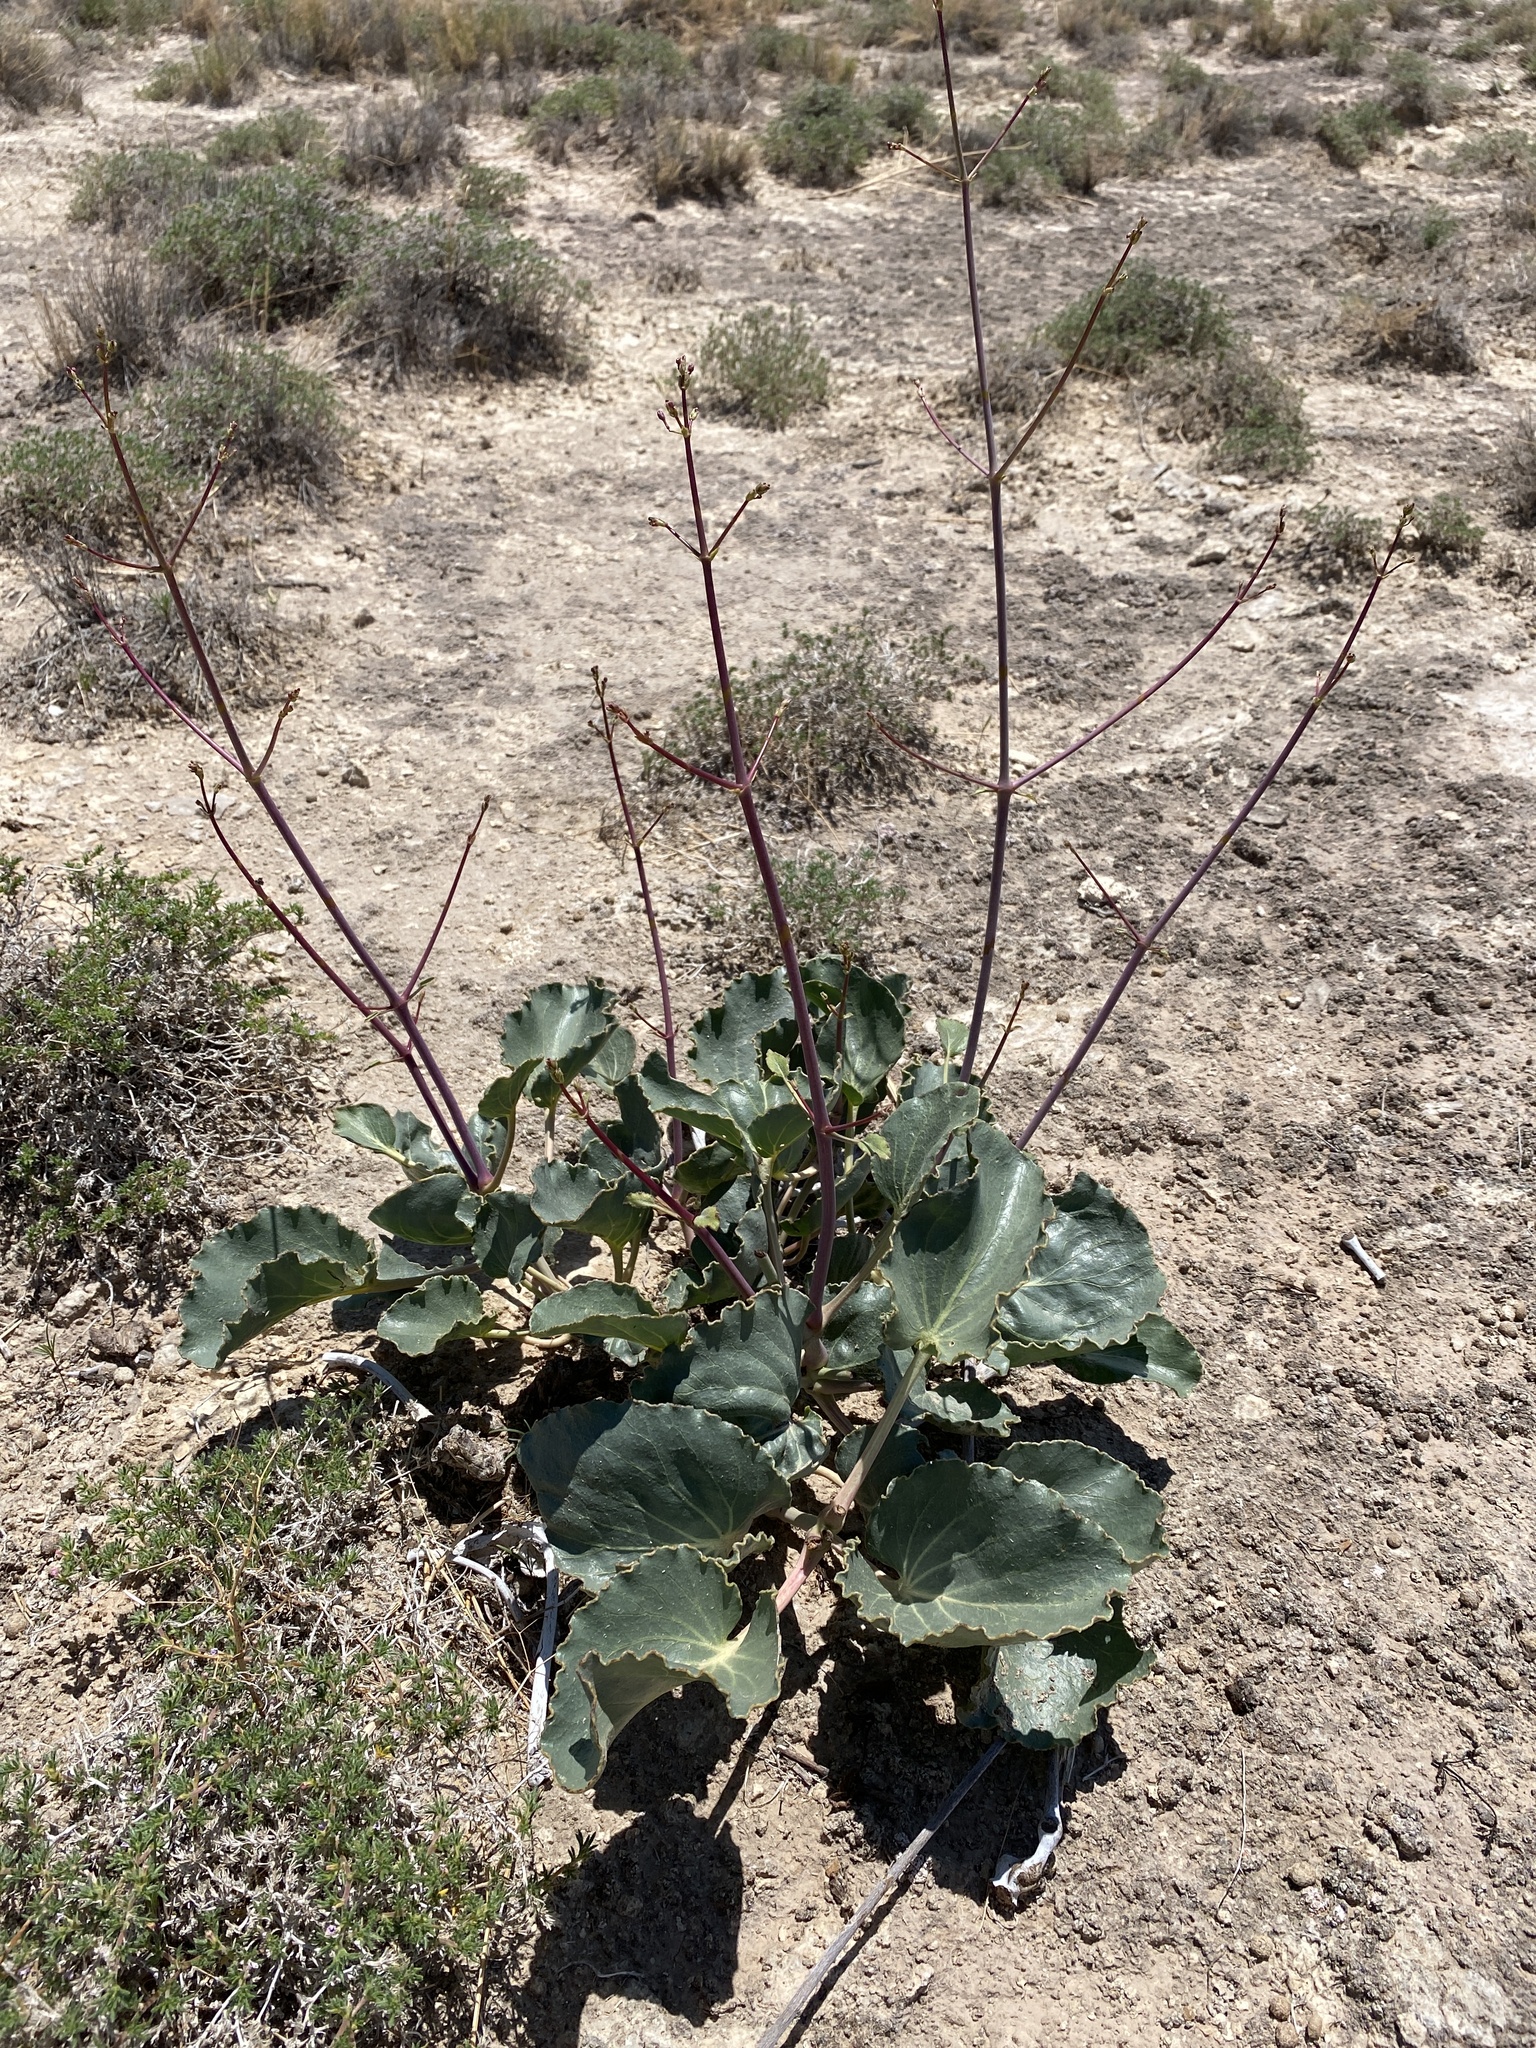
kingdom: Plantae
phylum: Tracheophyta
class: Magnoliopsida
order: Caryophyllales
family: Nyctaginaceae
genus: Anulocaulis
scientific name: Anulocaulis leiosolenus
